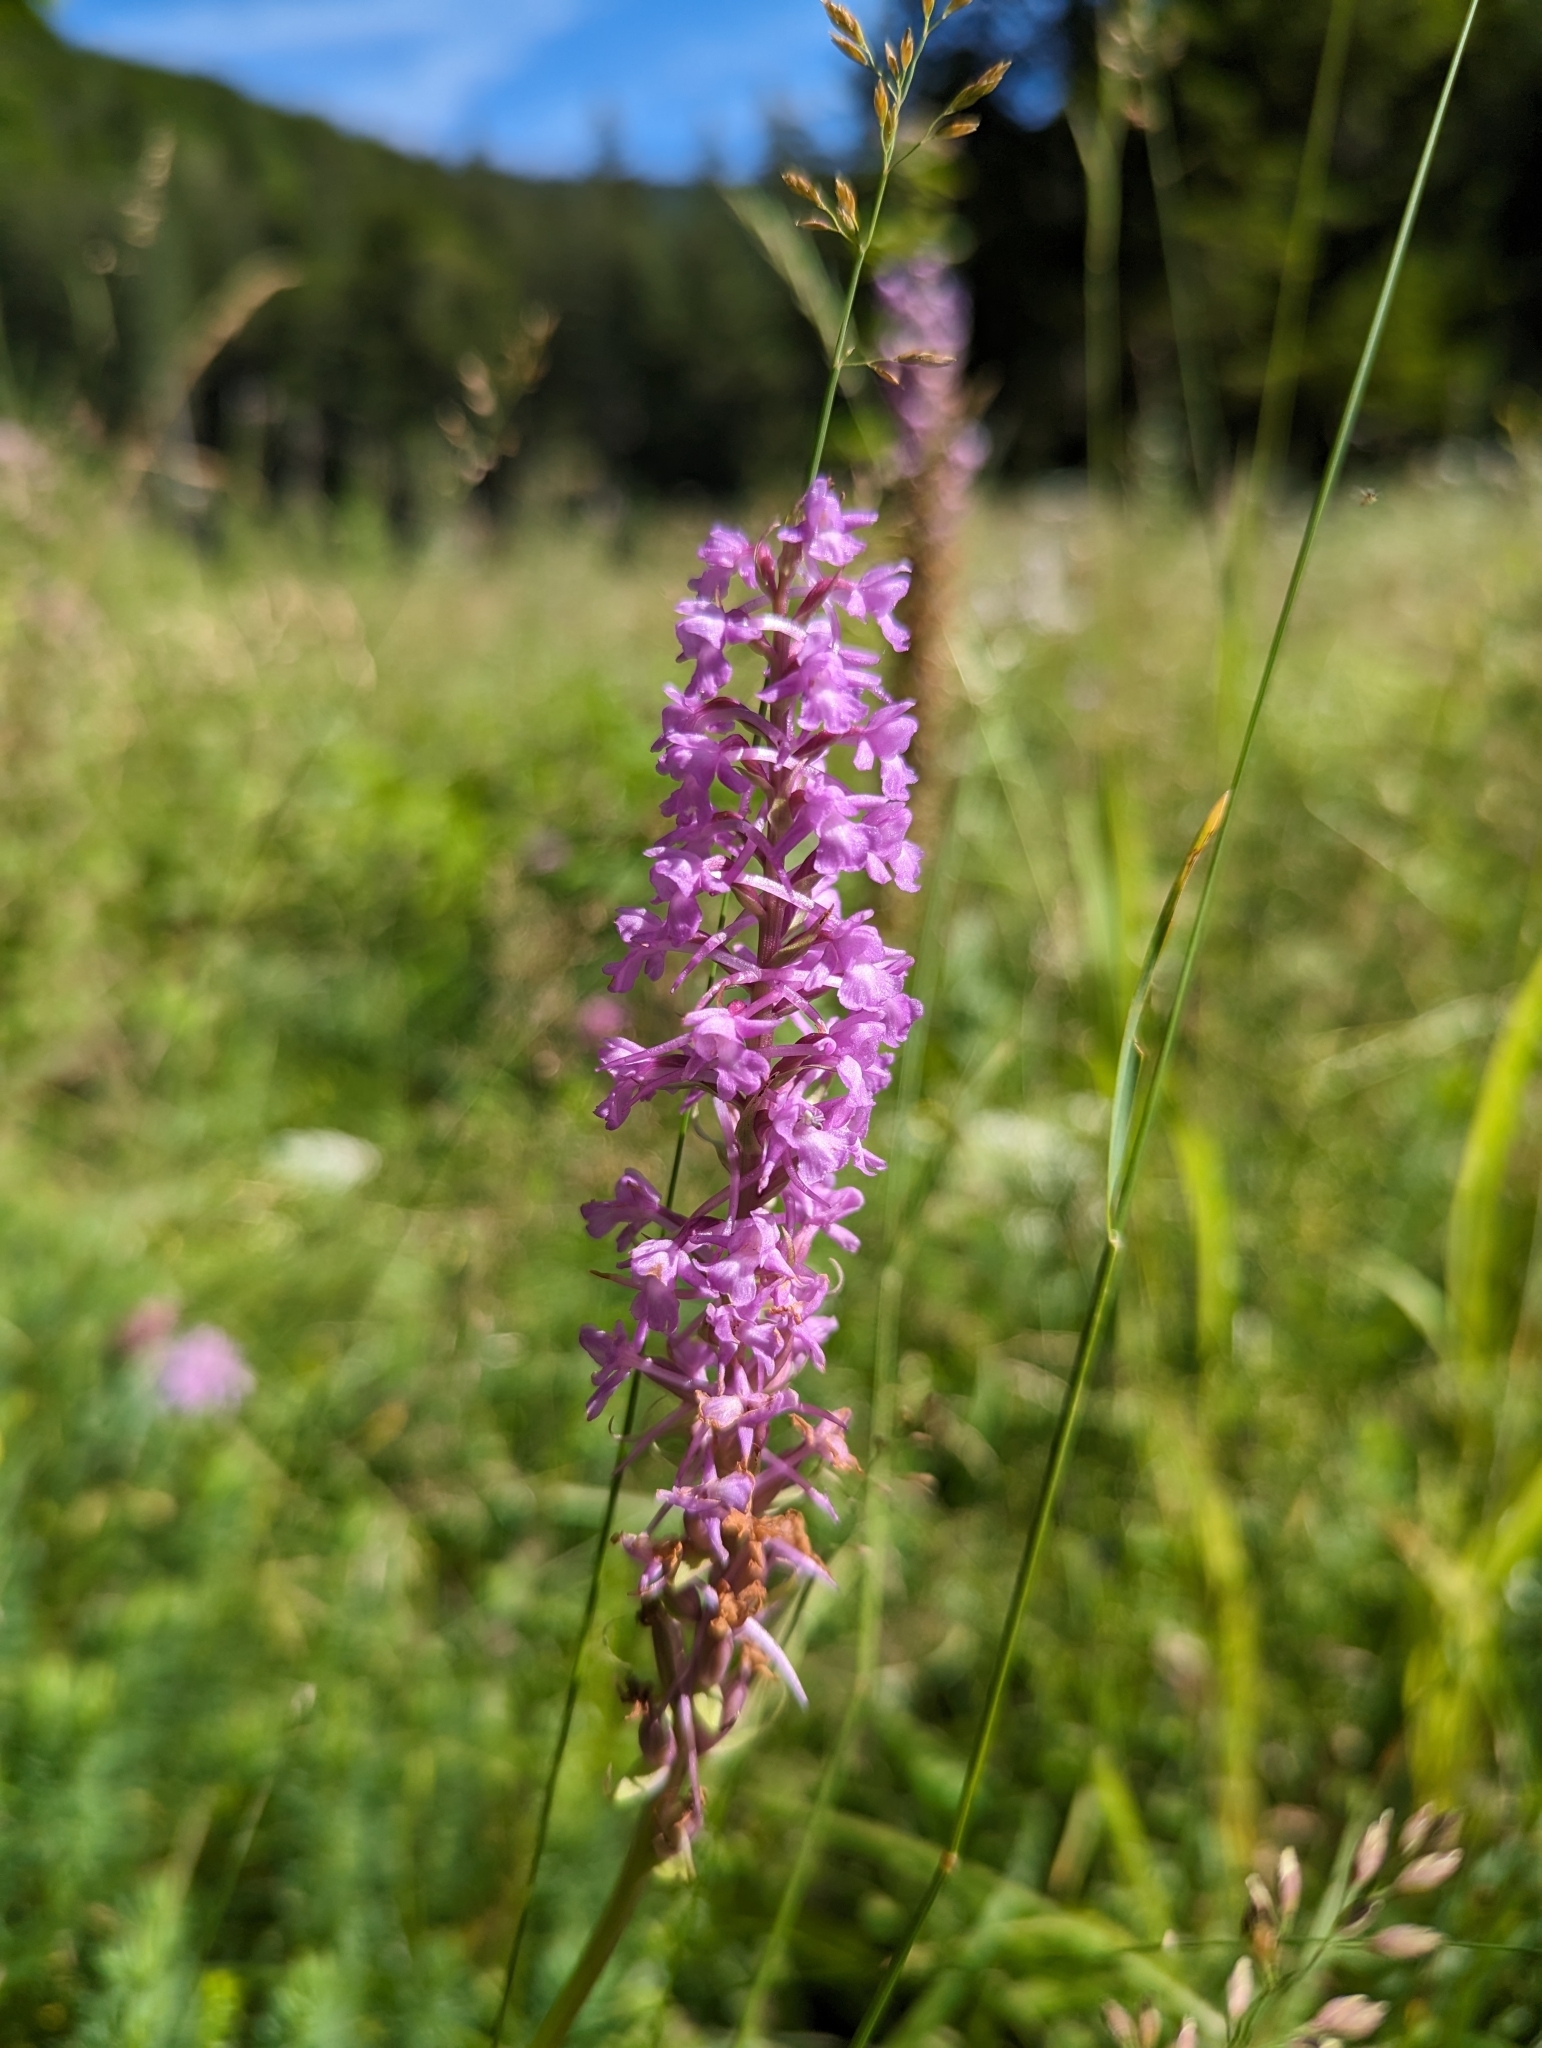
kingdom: Plantae
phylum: Tracheophyta
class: Liliopsida
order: Asparagales
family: Orchidaceae
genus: Gymnadenia
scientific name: Gymnadenia conopsea
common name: Fragrant orchid
